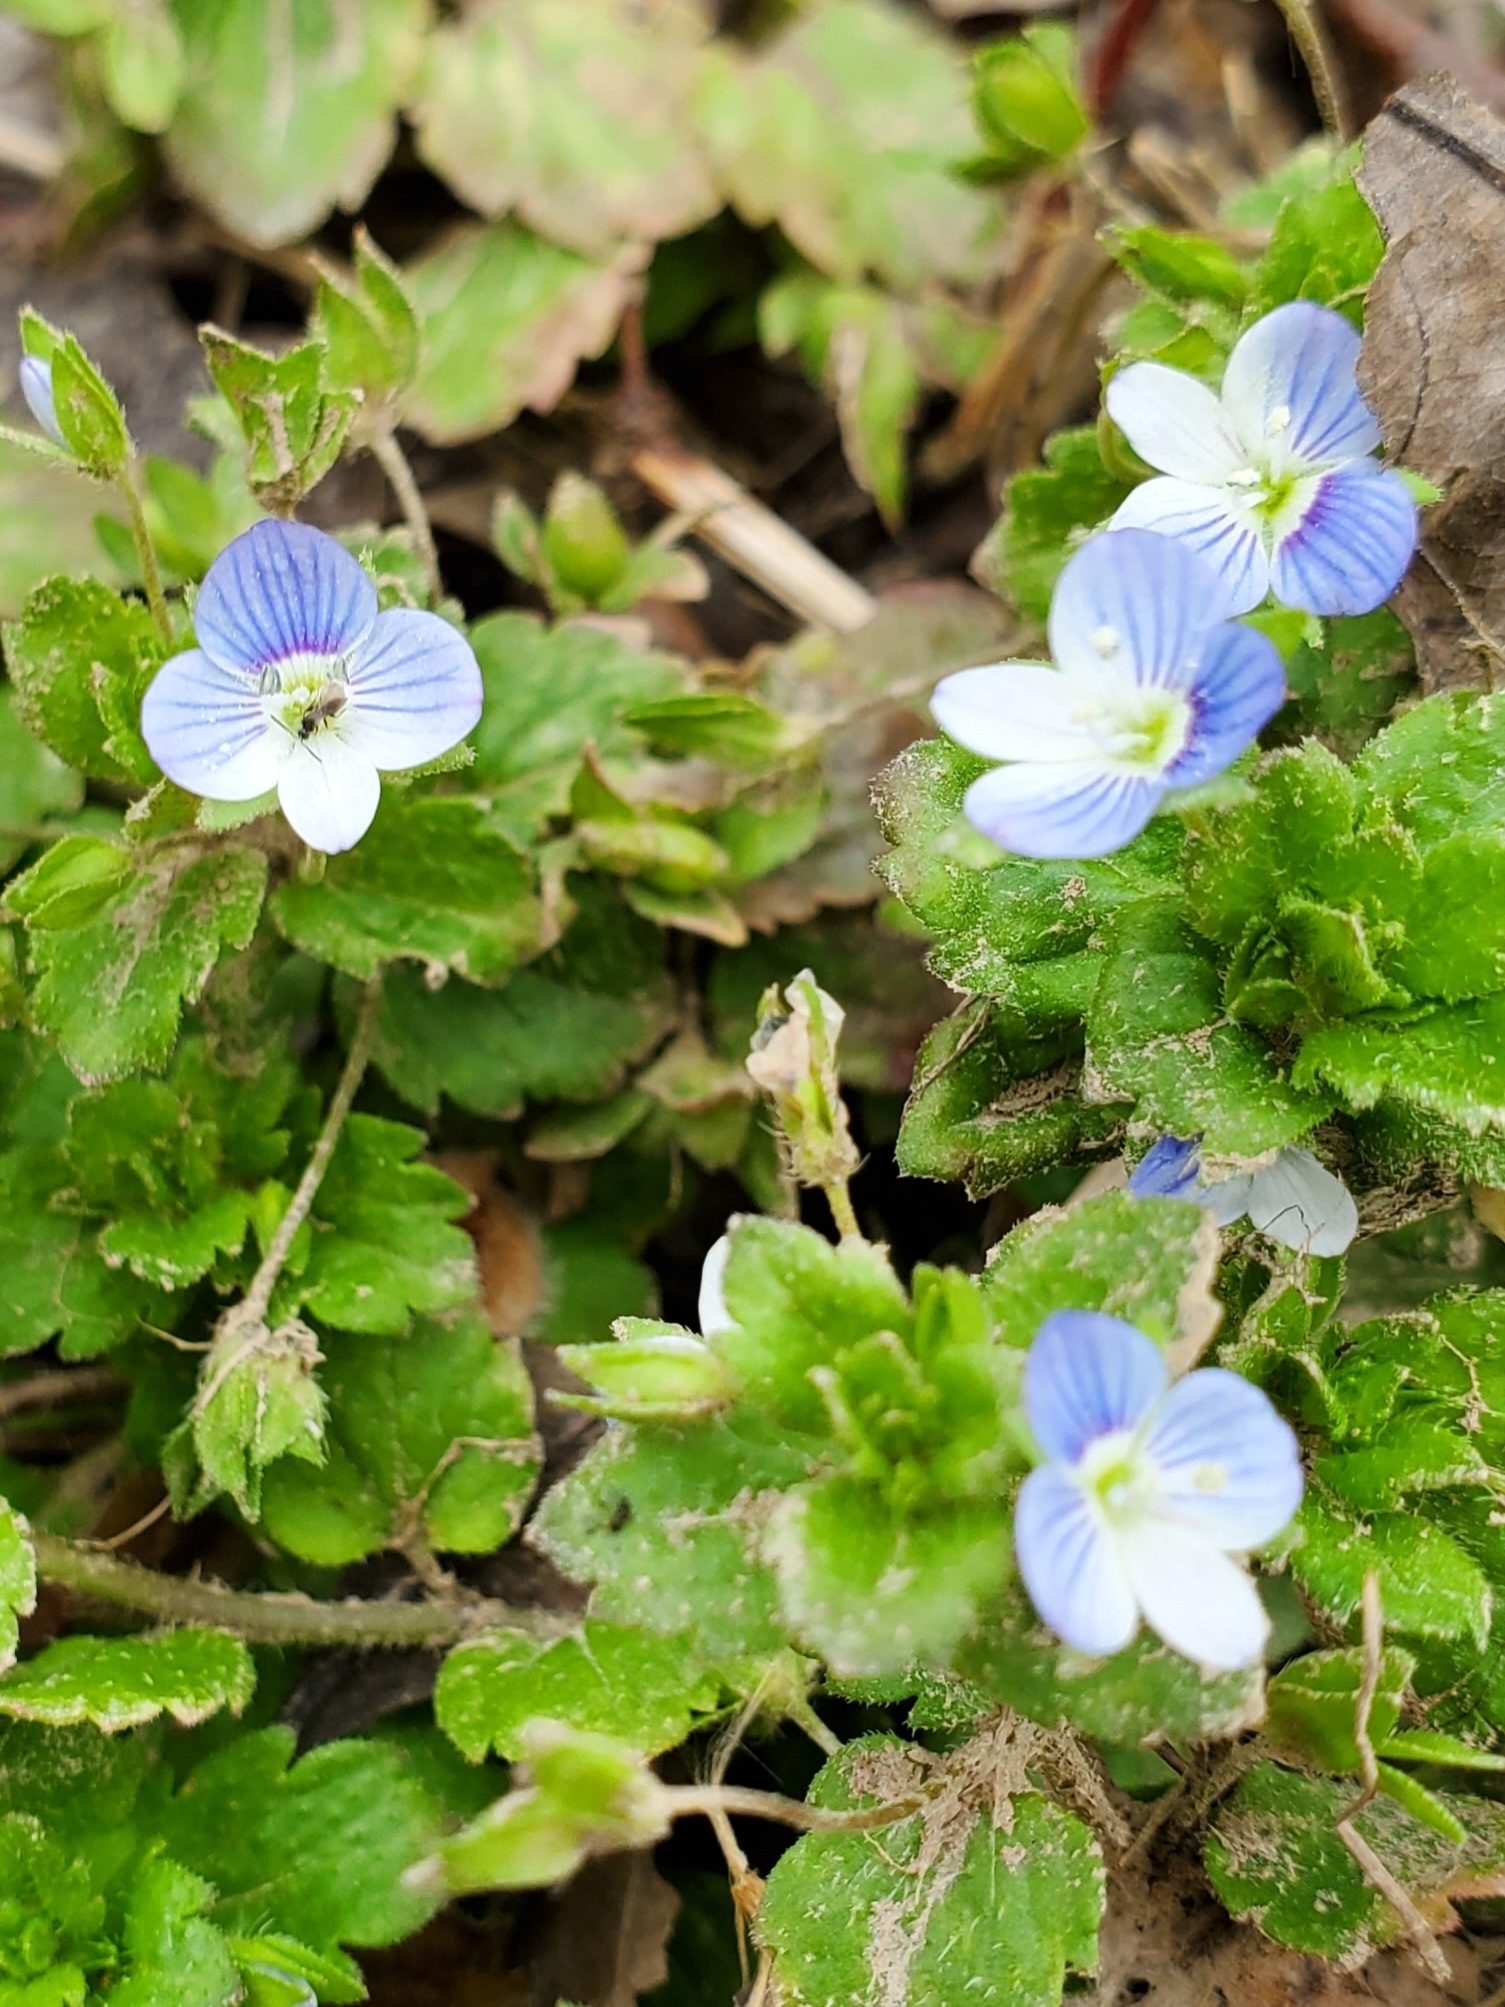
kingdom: Plantae
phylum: Tracheophyta
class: Magnoliopsida
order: Lamiales
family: Plantaginaceae
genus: Veronica
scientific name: Veronica persica
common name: Common field-speedwell
